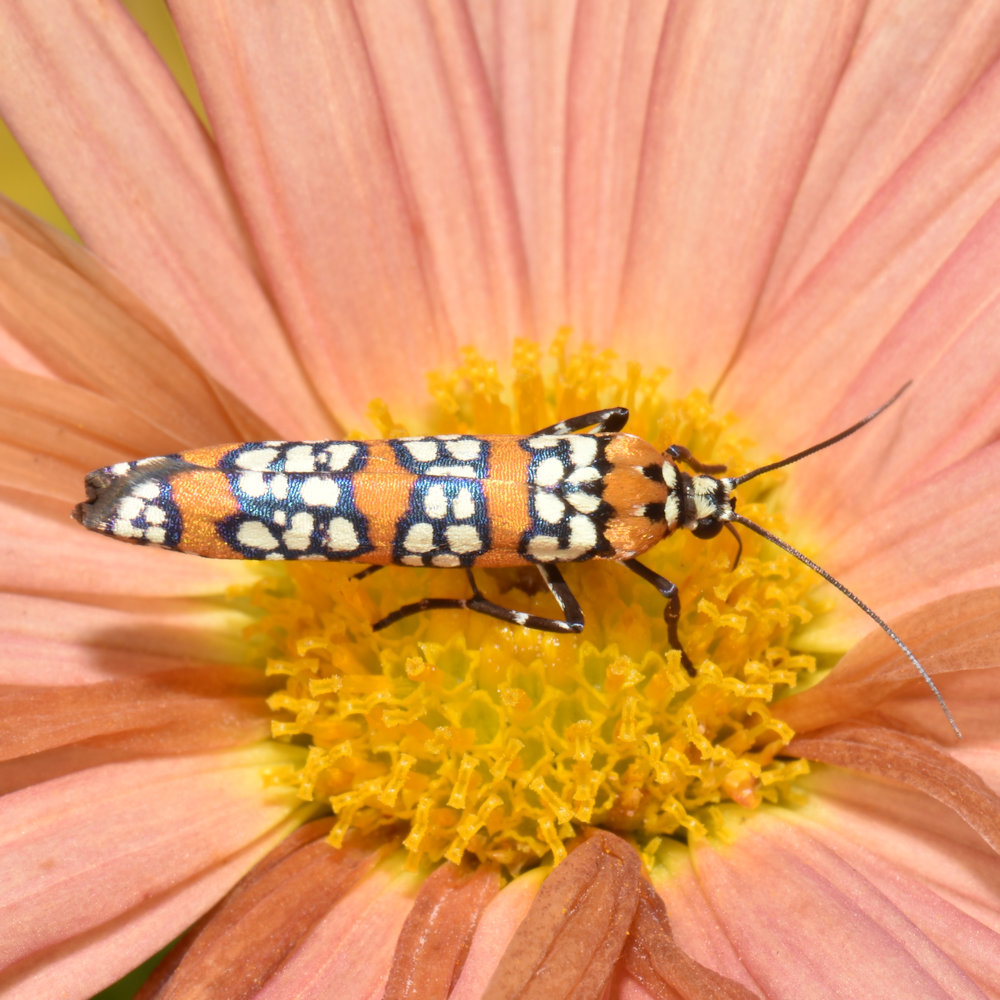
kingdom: Animalia
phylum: Arthropoda
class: Insecta
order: Lepidoptera
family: Attevidae
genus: Atteva
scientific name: Atteva punctella
